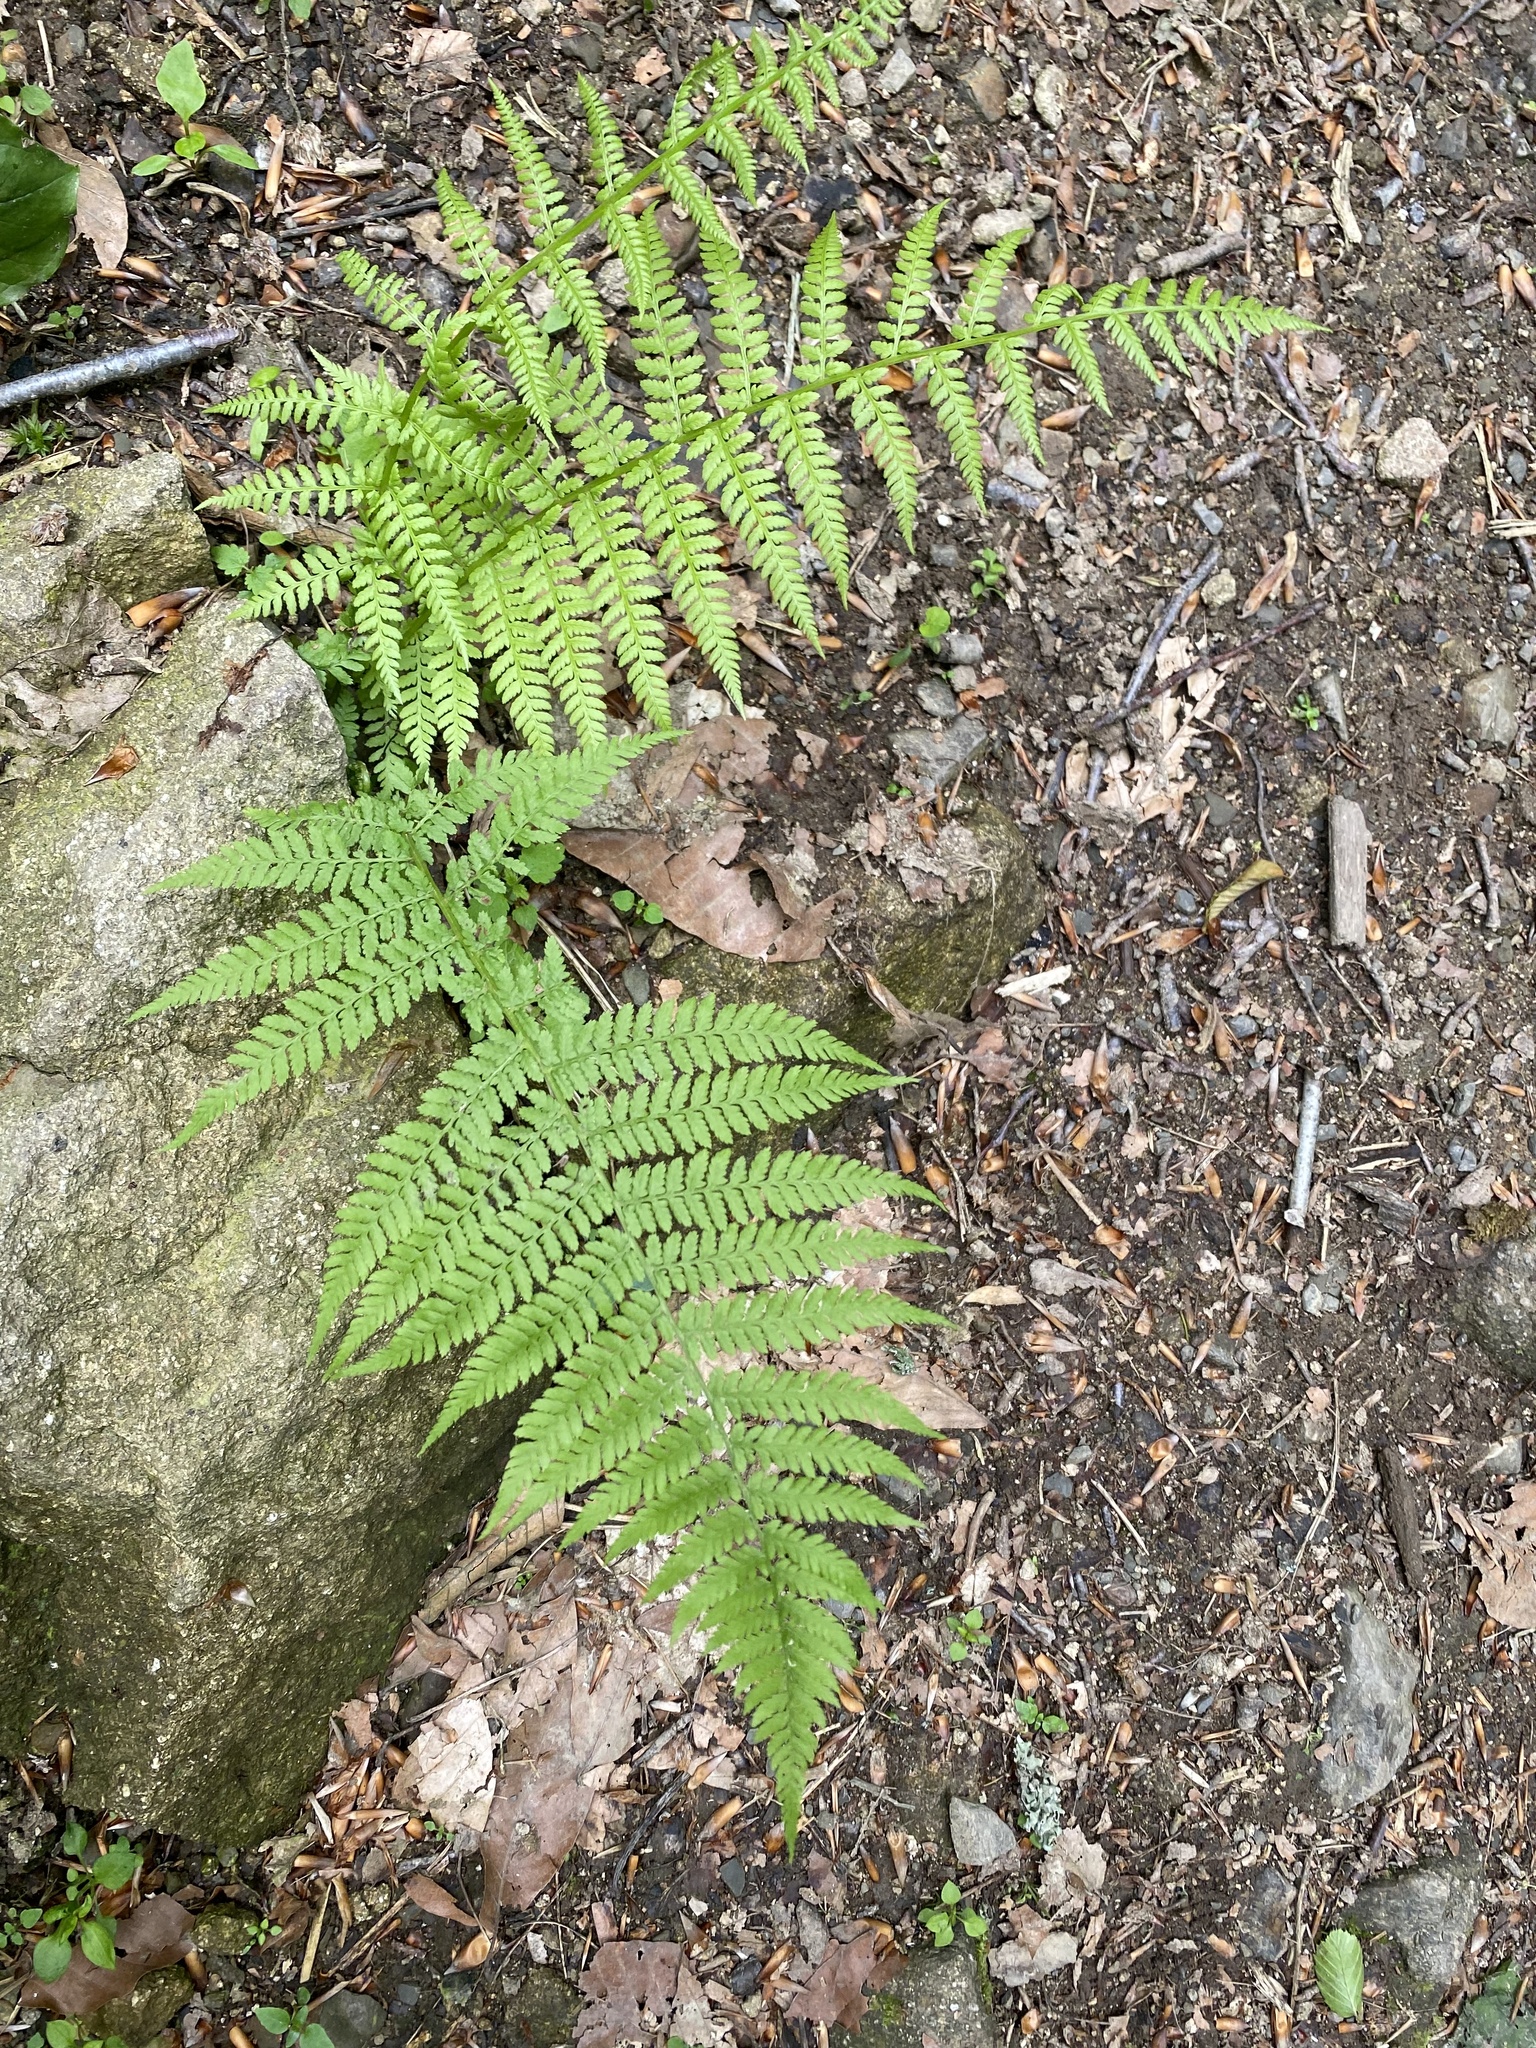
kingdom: Plantae
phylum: Tracheophyta
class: Polypodiopsida
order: Polypodiales
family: Athyriaceae
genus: Athyrium
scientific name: Athyrium filix-femina
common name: Lady fern
